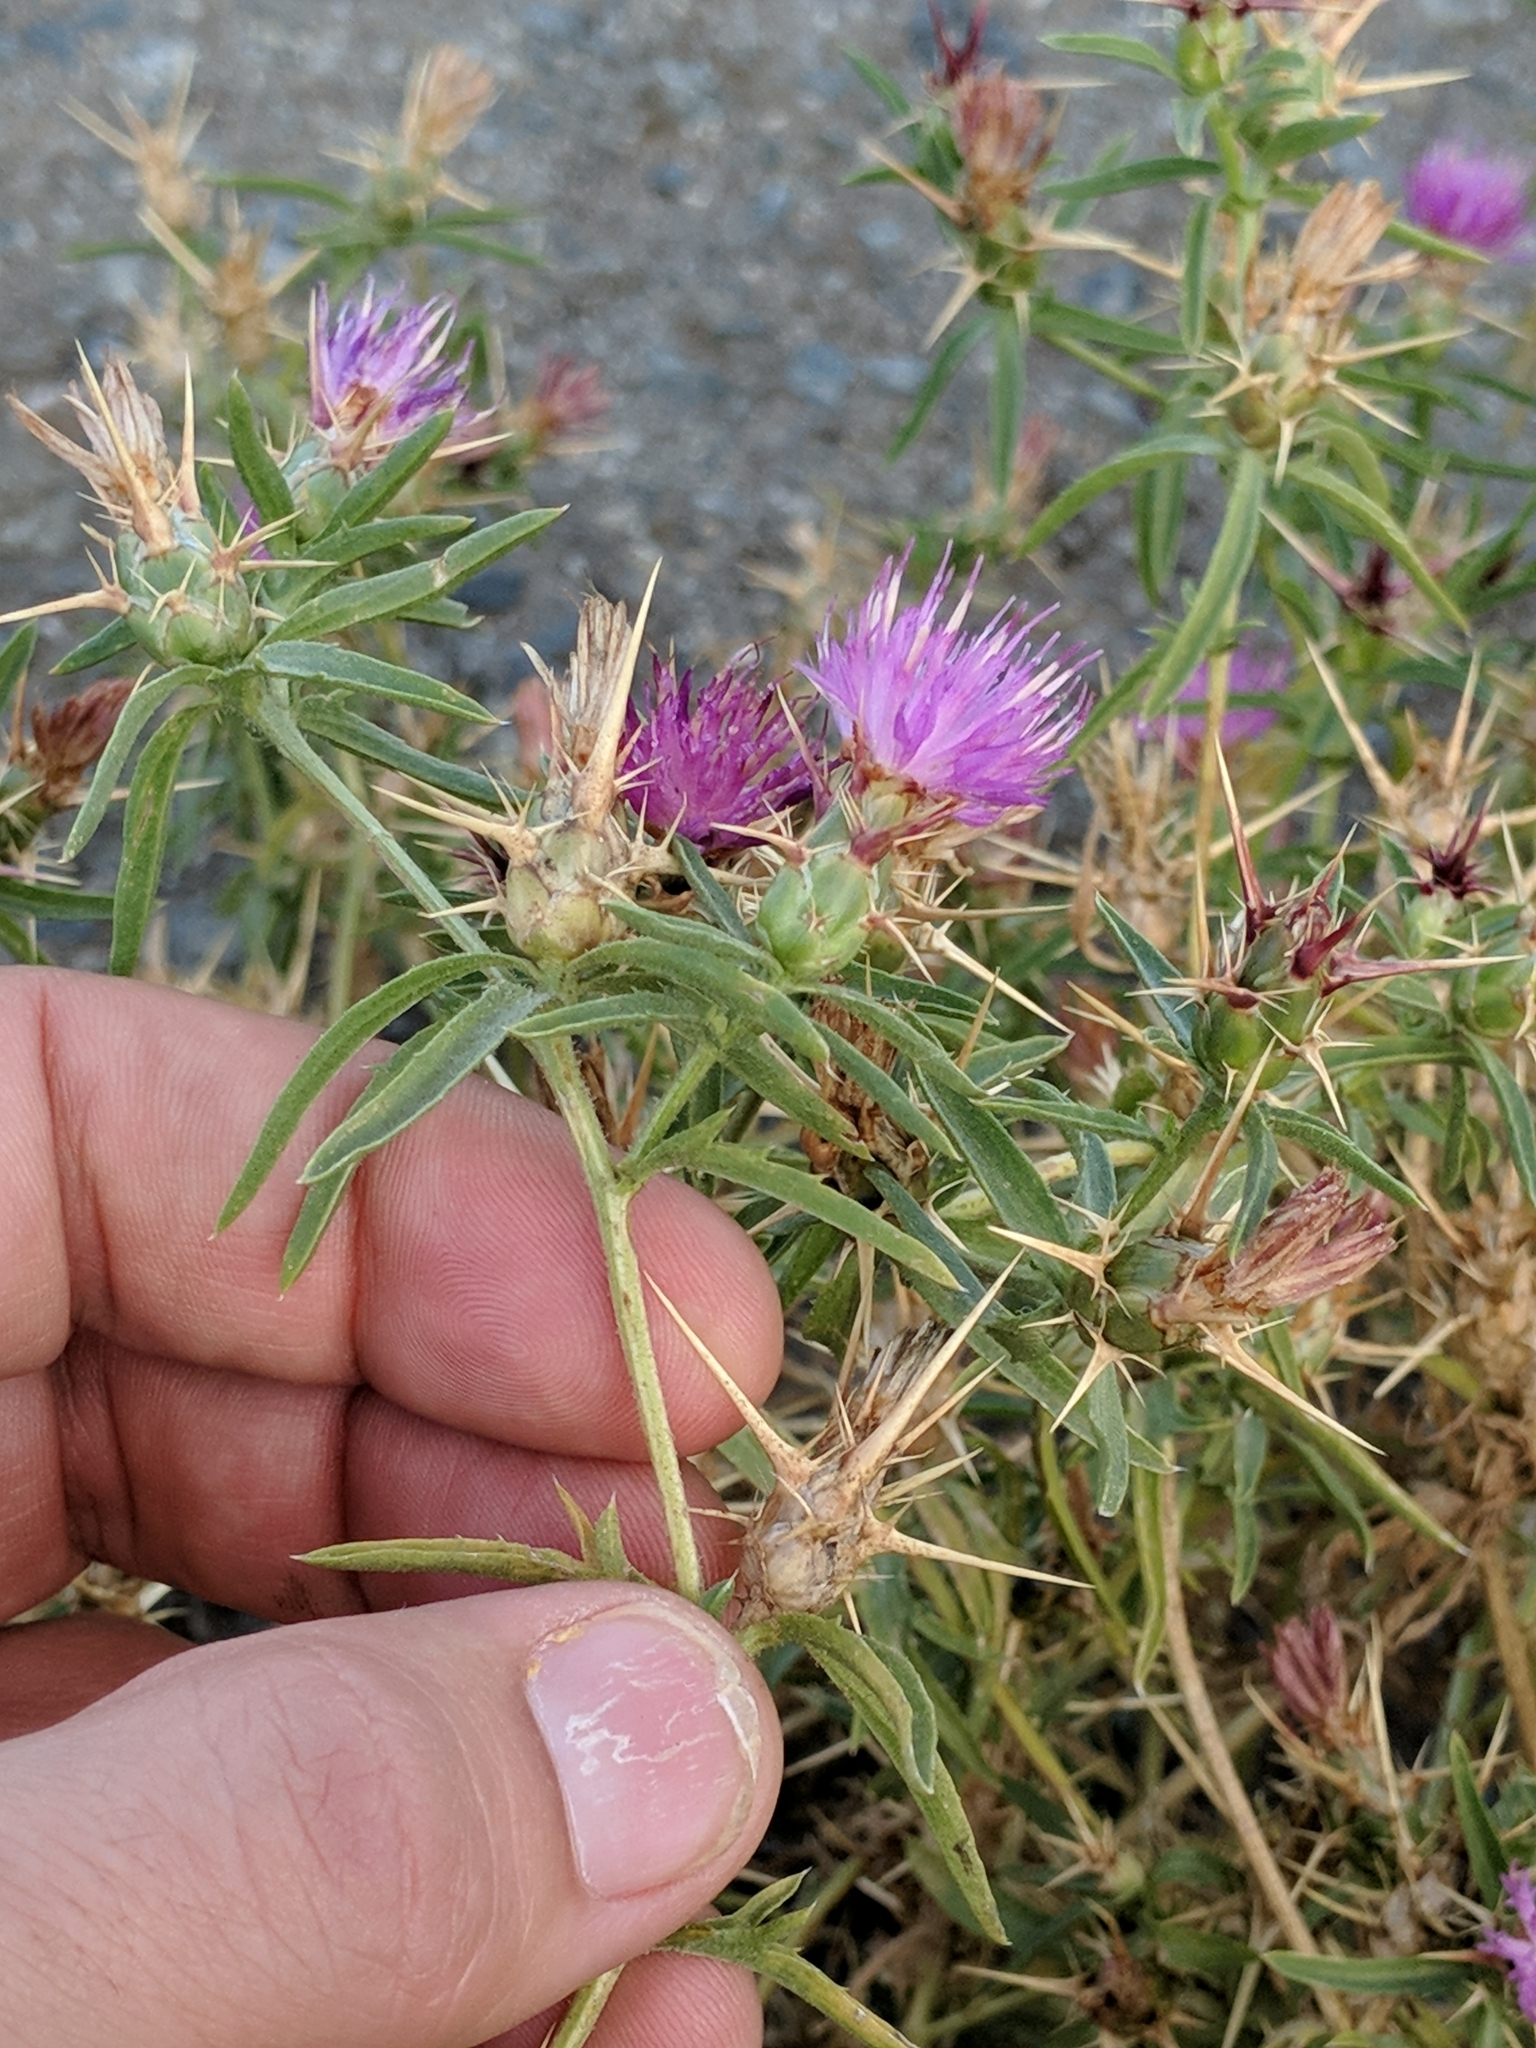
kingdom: Plantae
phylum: Tracheophyta
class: Magnoliopsida
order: Asterales
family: Asteraceae
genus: Centaurea
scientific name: Centaurea calcitrapa
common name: Red star-thistle
